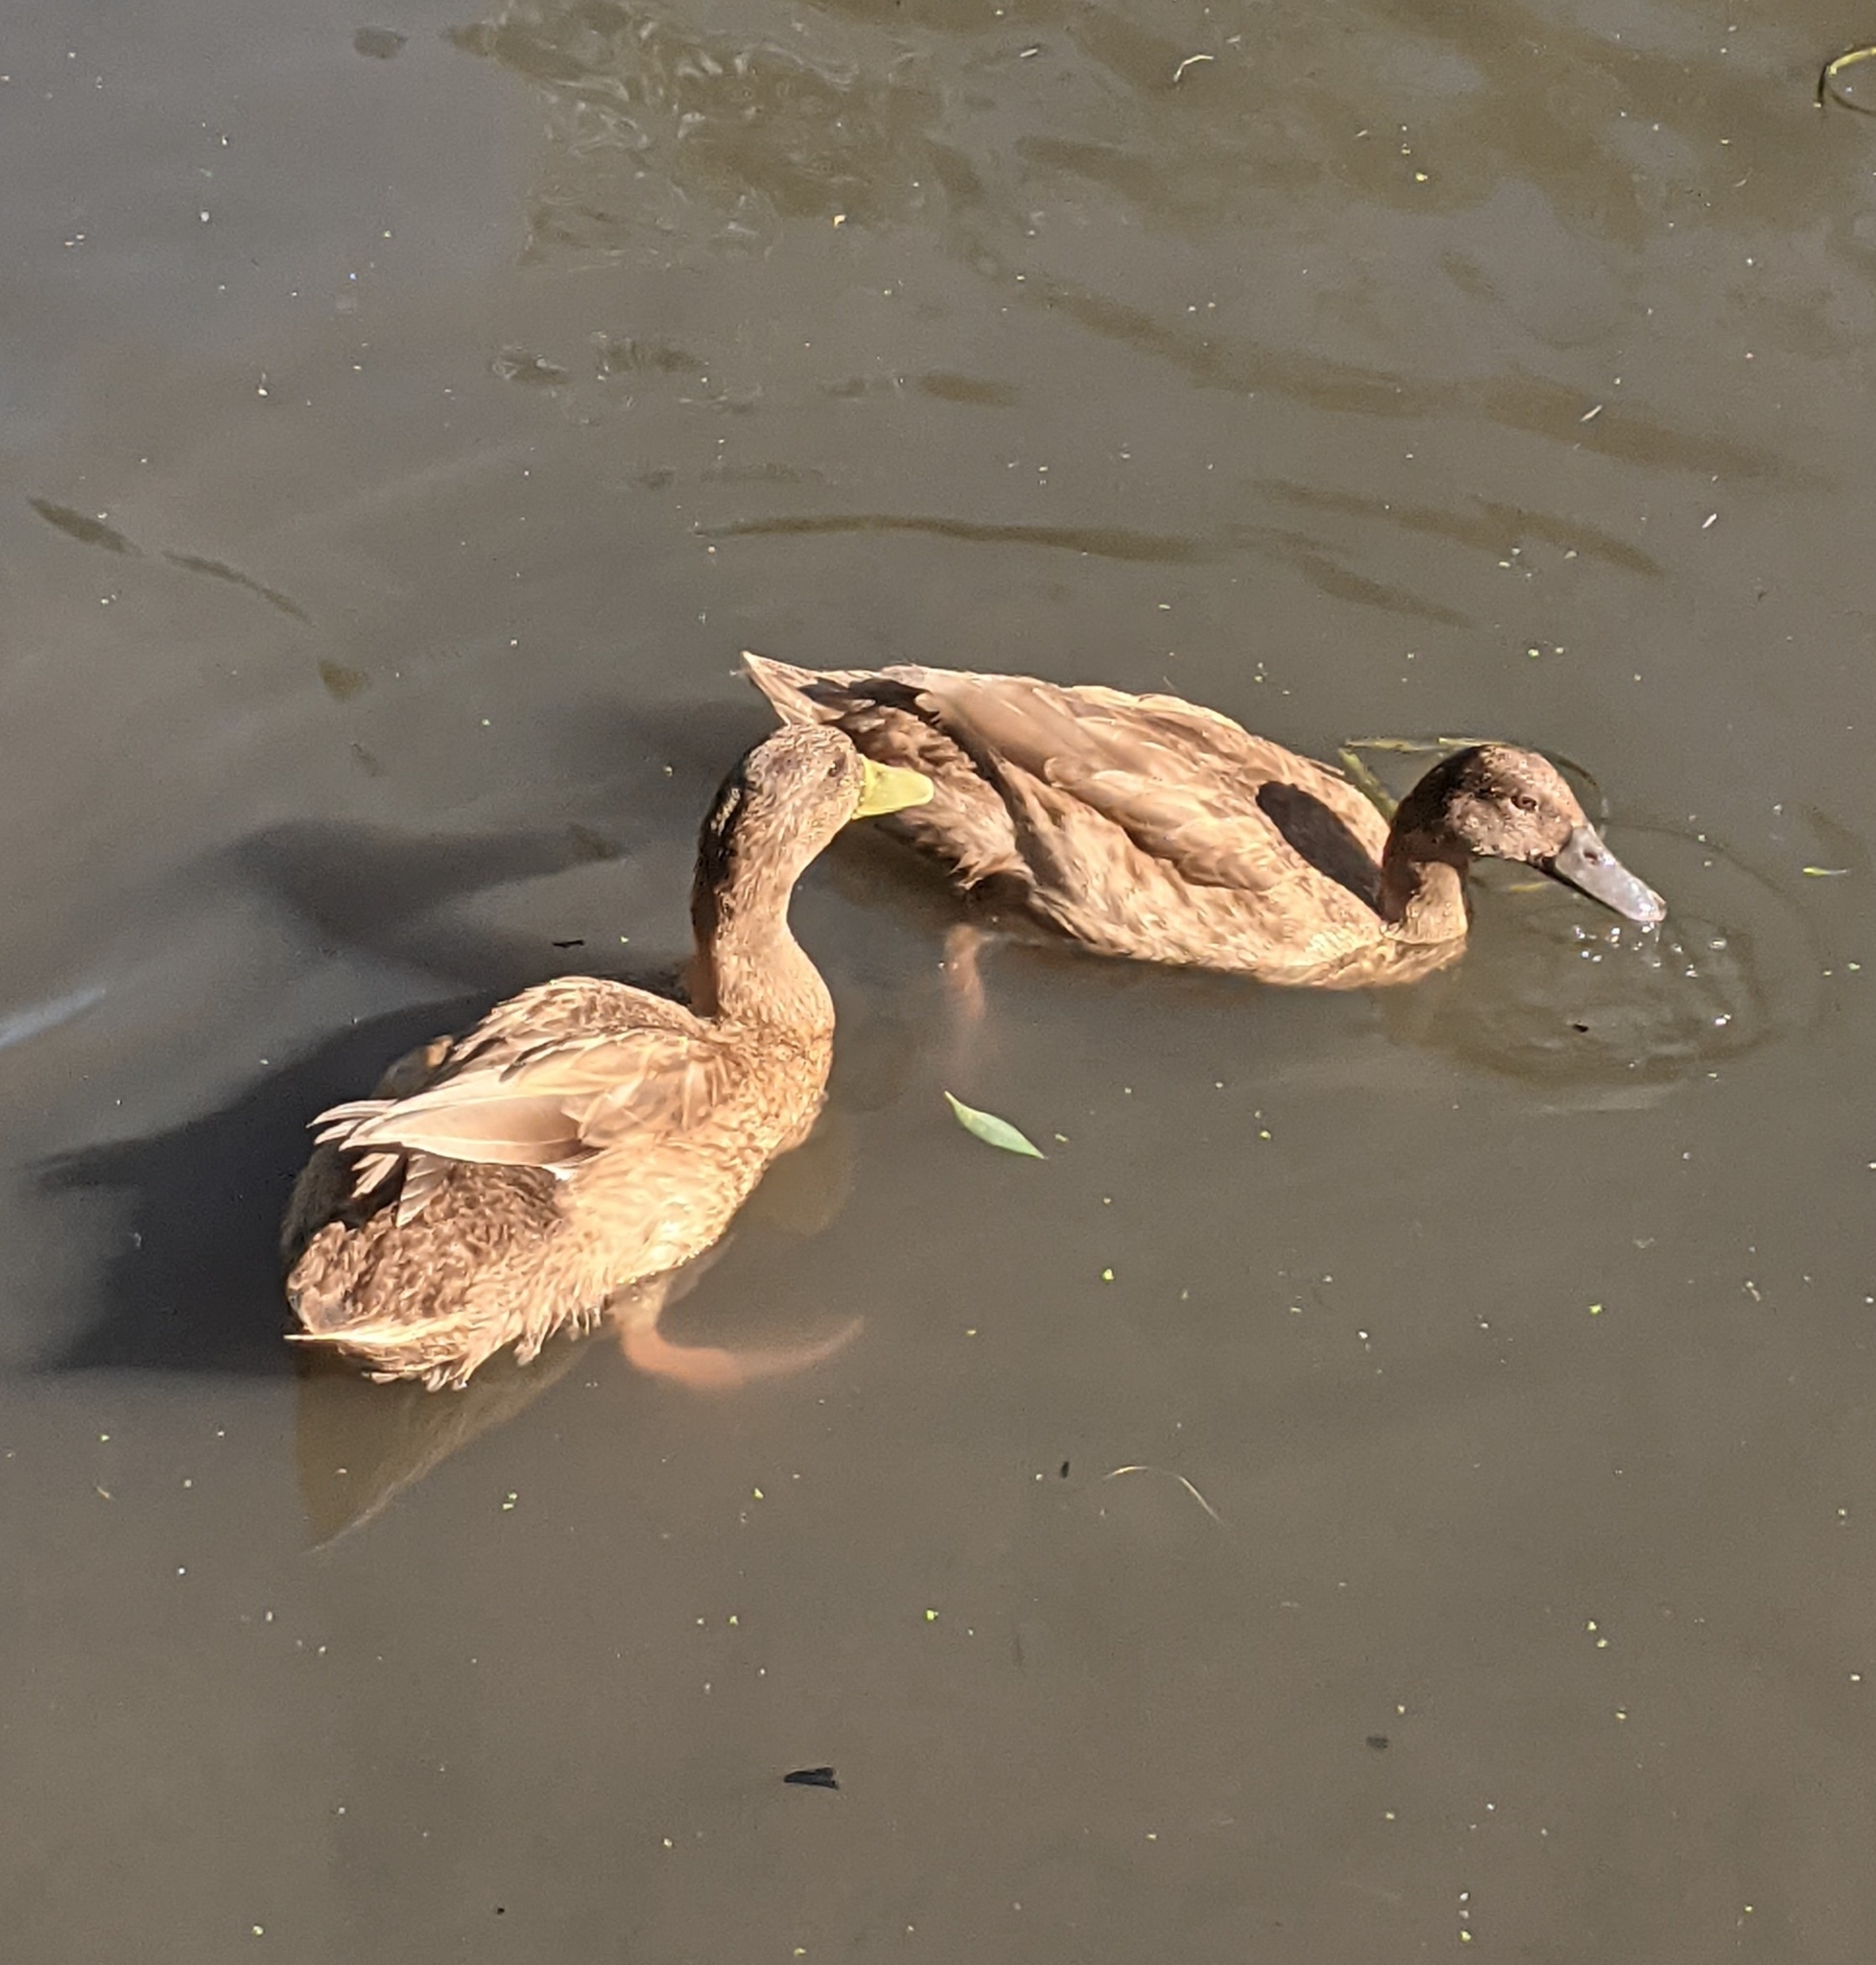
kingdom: Animalia
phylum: Chordata
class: Aves
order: Anseriformes
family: Anatidae
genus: Anas
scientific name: Anas platyrhynchos
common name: Mallard
